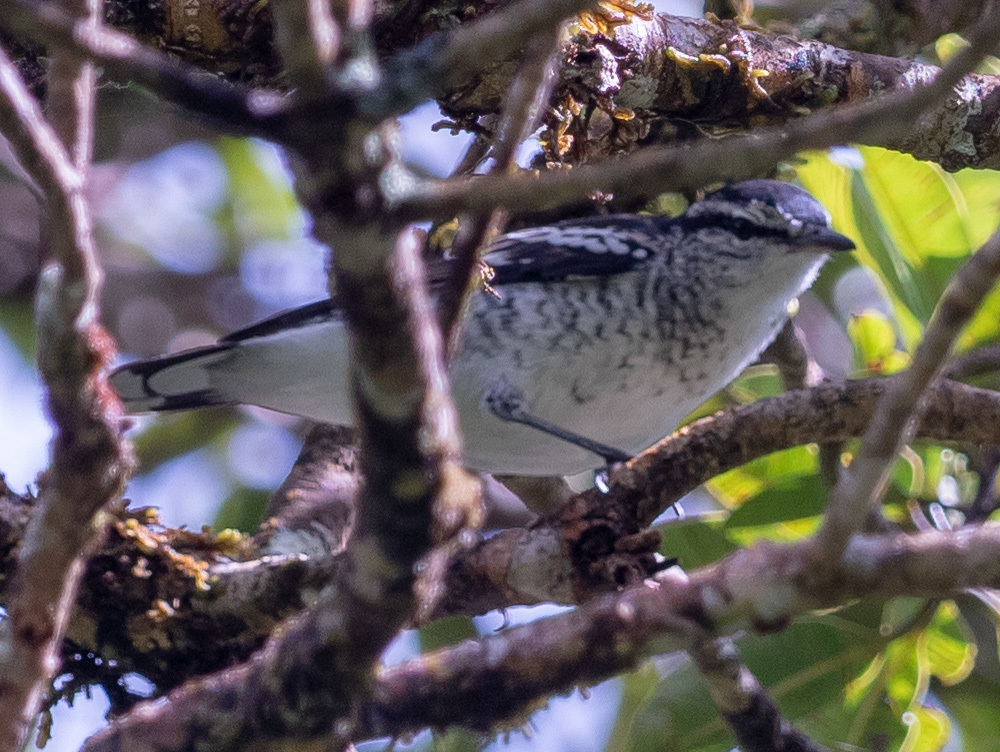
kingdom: Animalia
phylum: Chordata
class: Aves
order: Passeriformes
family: Campephagidae
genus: Lalage
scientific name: Lalage maculosa
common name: Polynesian triller
